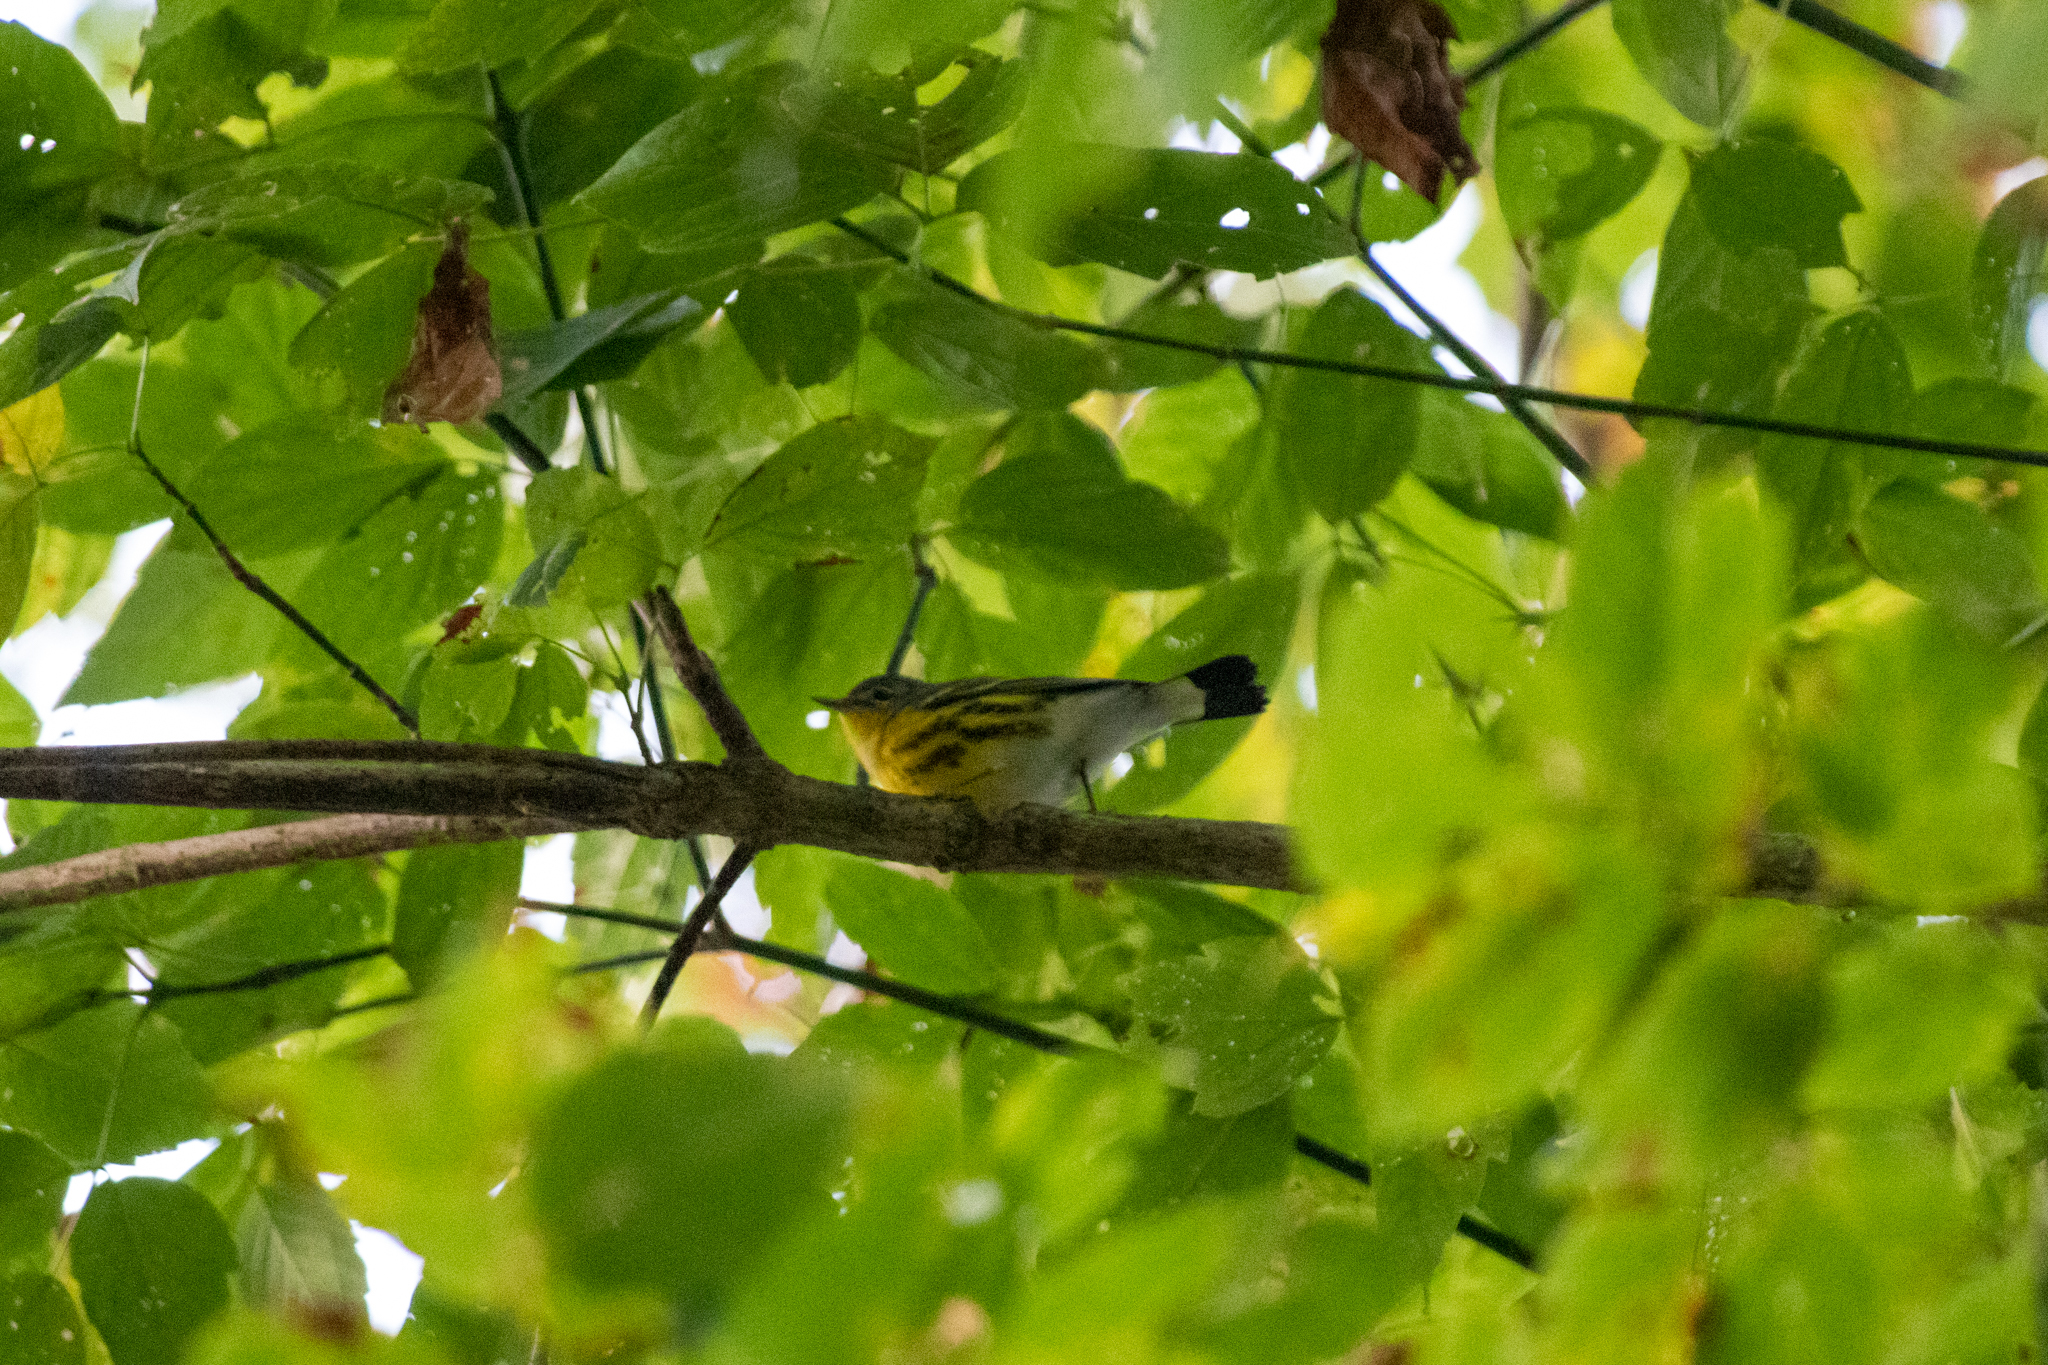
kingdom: Animalia
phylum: Chordata
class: Aves
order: Passeriformes
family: Parulidae
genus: Setophaga
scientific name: Setophaga magnolia
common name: Magnolia warbler
